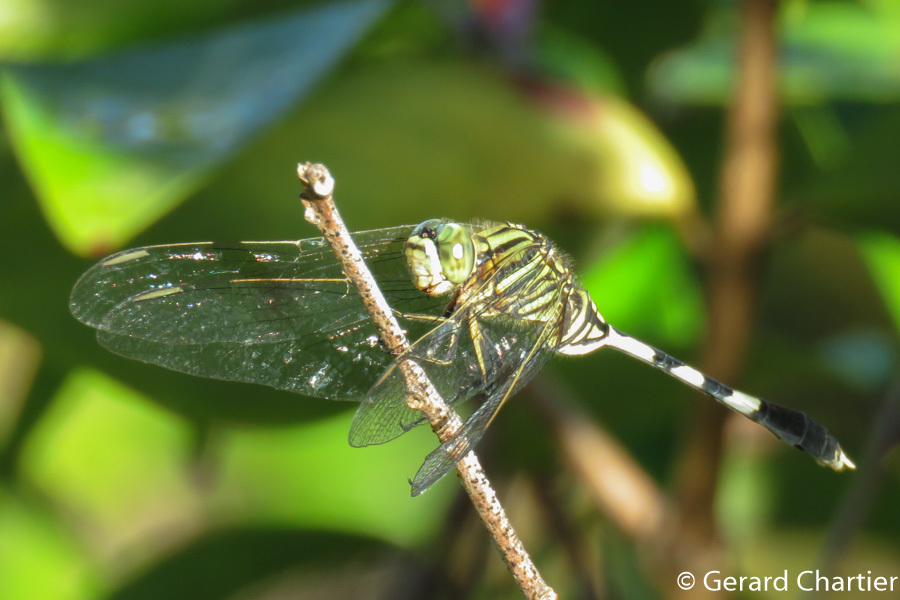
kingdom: Animalia
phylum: Arthropoda
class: Insecta
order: Odonata
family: Libellulidae
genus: Orthetrum
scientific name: Orthetrum sabina
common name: Slender skimmer
